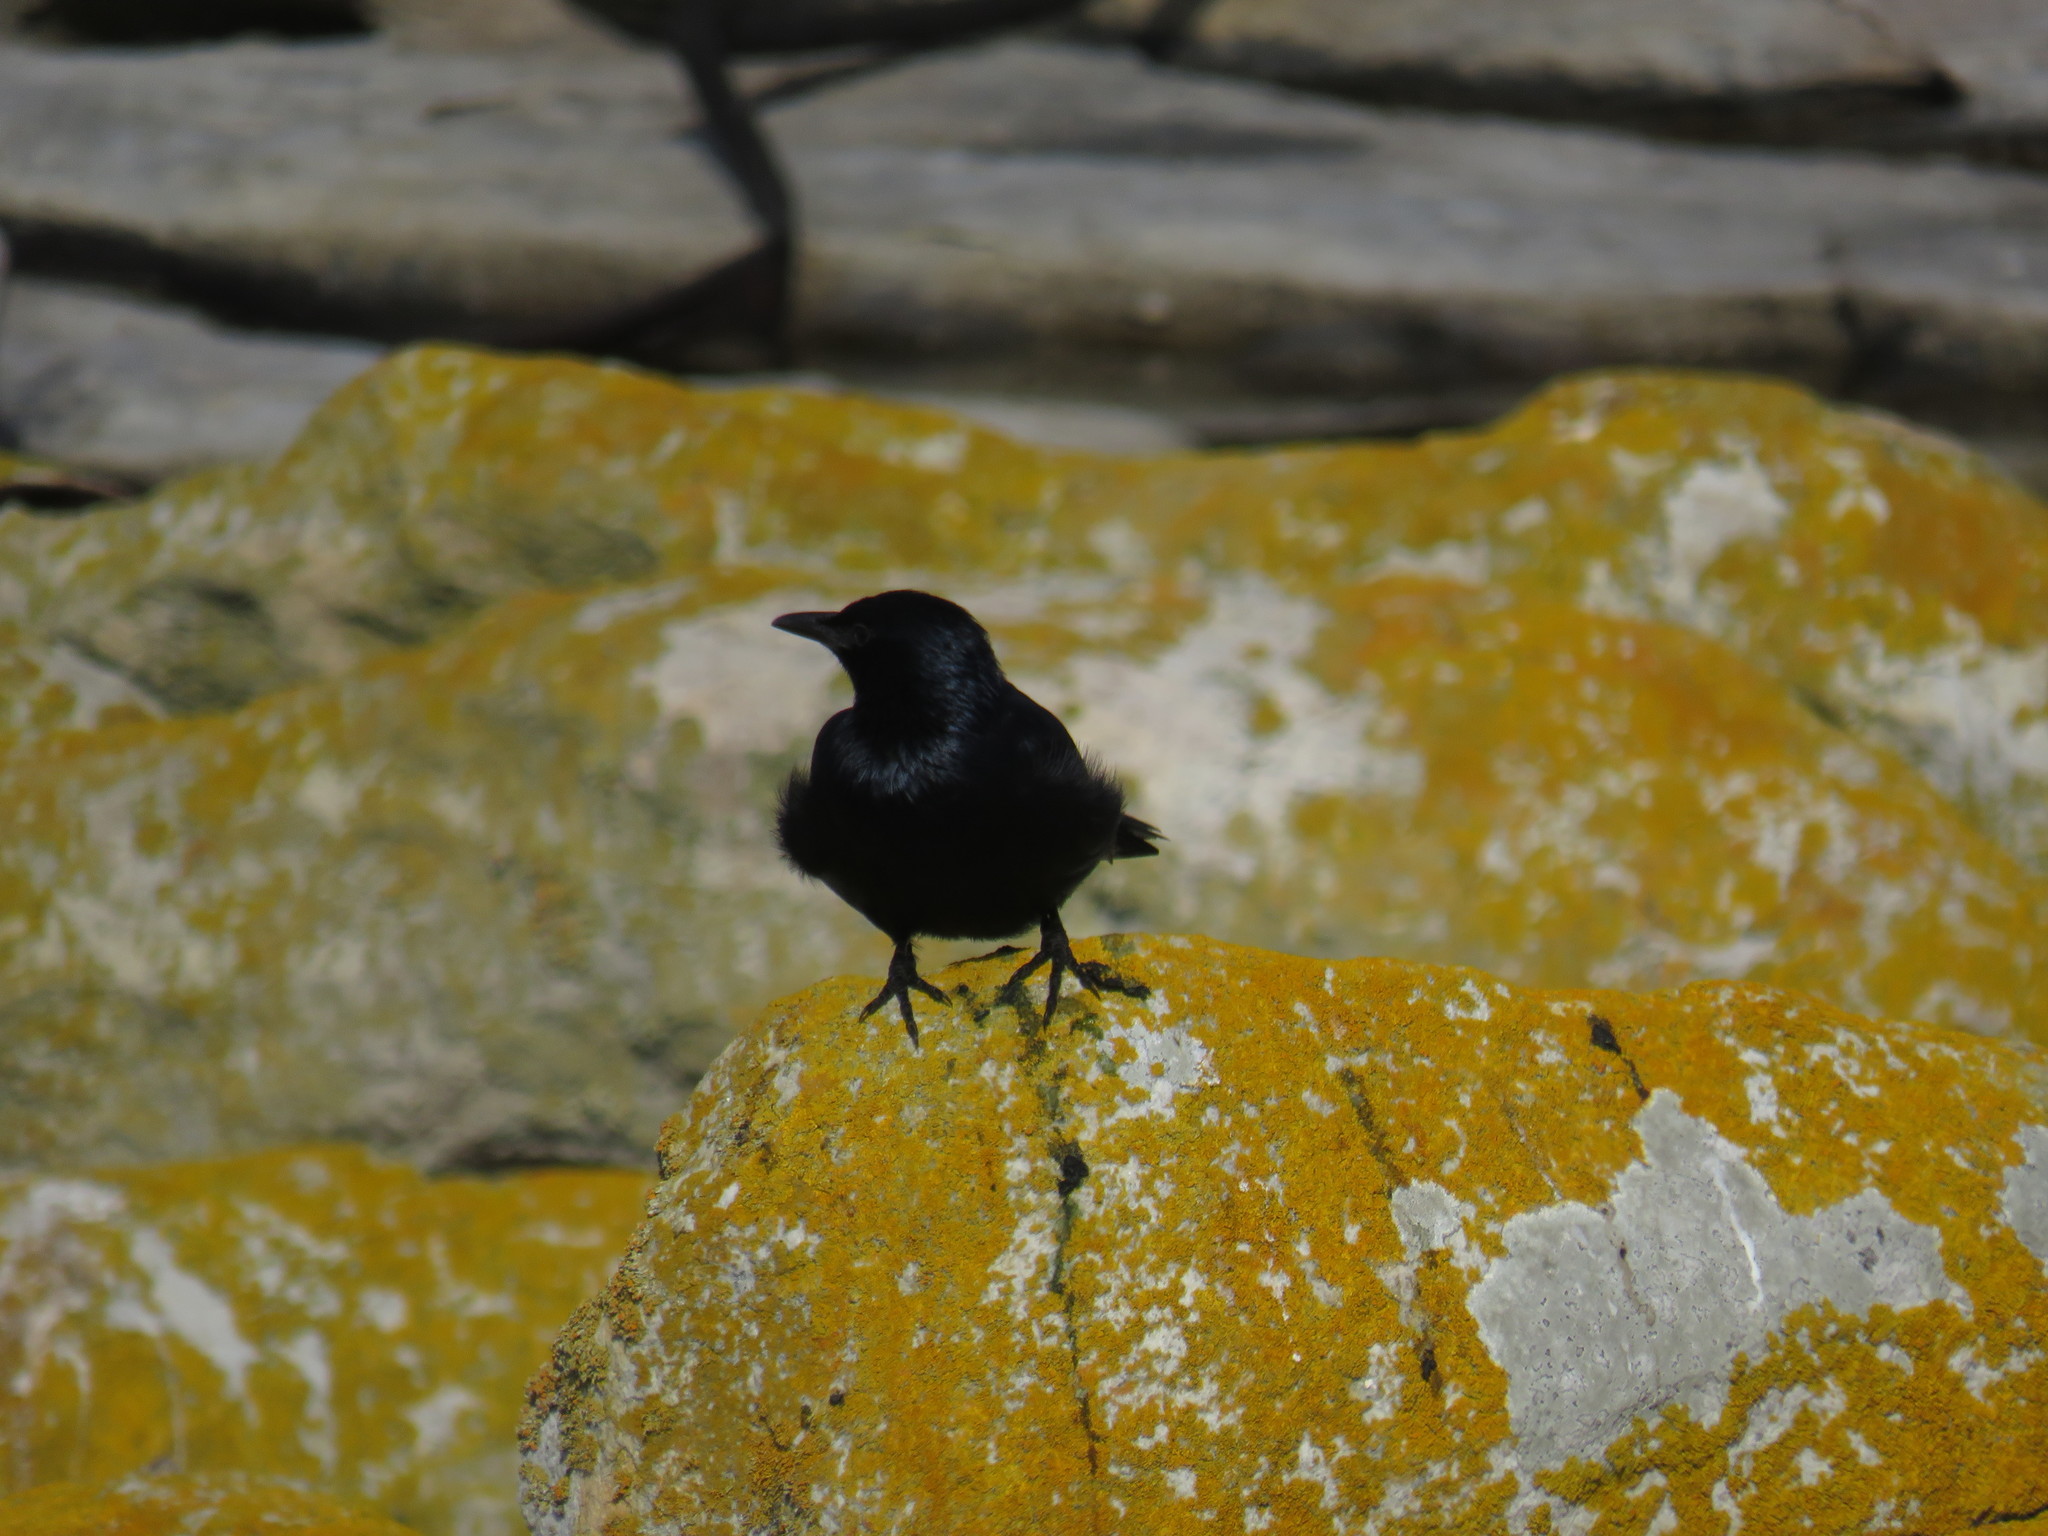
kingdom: Animalia
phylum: Chordata
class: Aves
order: Passeriformes
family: Sturnidae
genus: Onychognathus
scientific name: Onychognathus morio
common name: Red-winged starling
